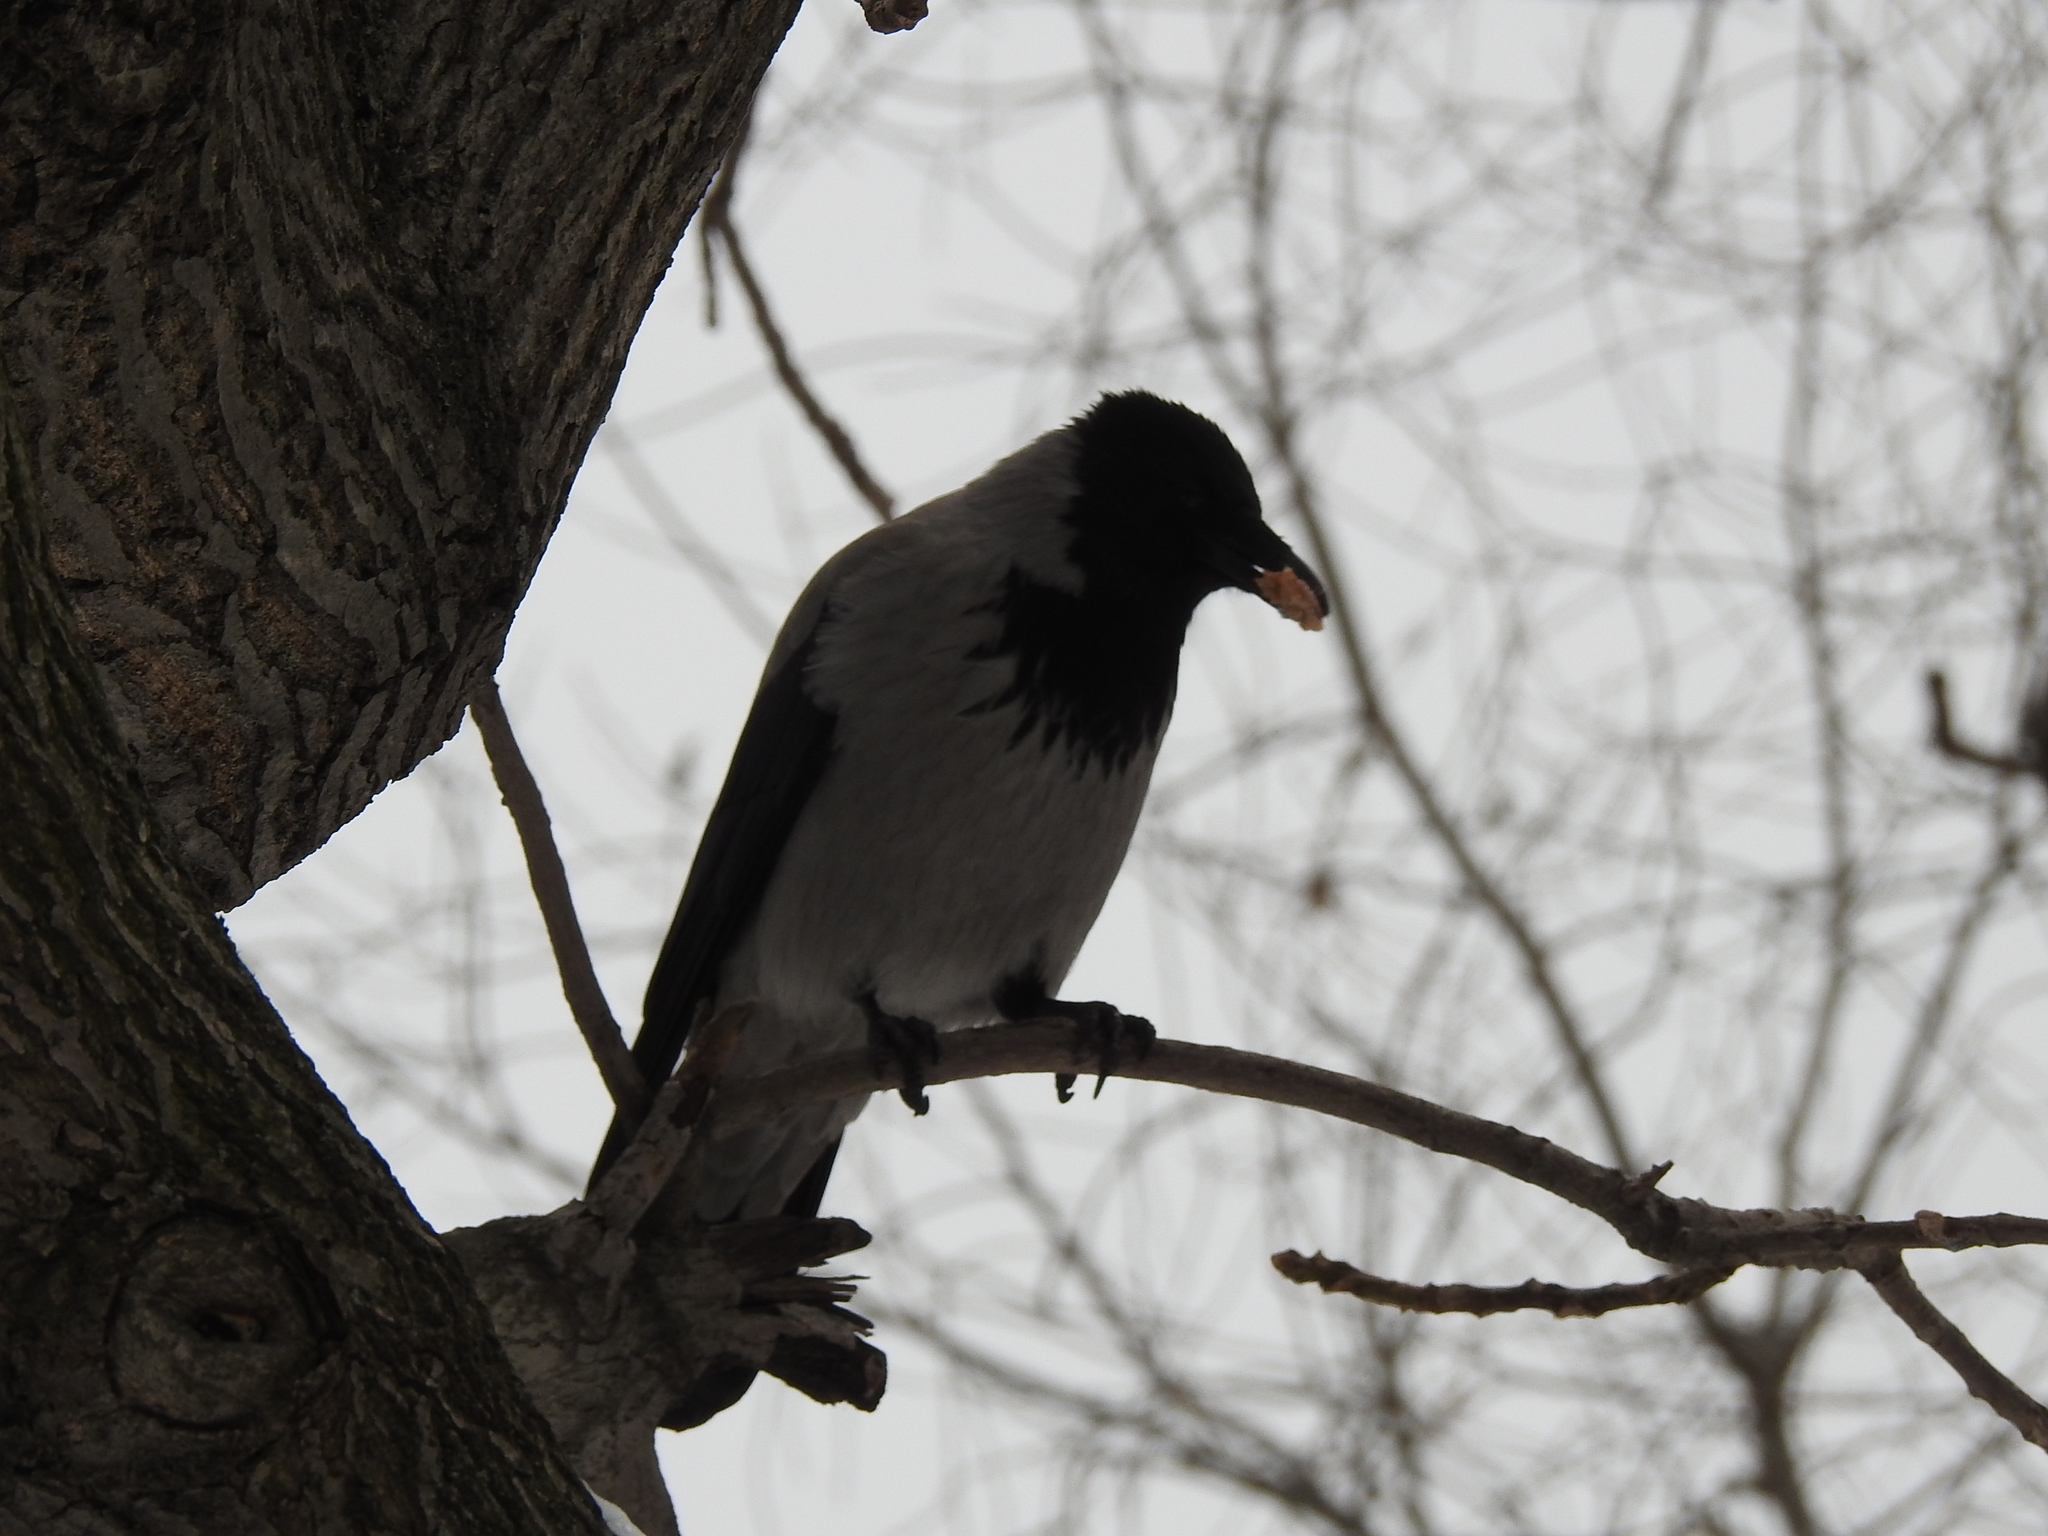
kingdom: Animalia
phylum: Chordata
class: Aves
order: Passeriformes
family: Corvidae
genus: Corvus
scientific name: Corvus cornix
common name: Hooded crow
